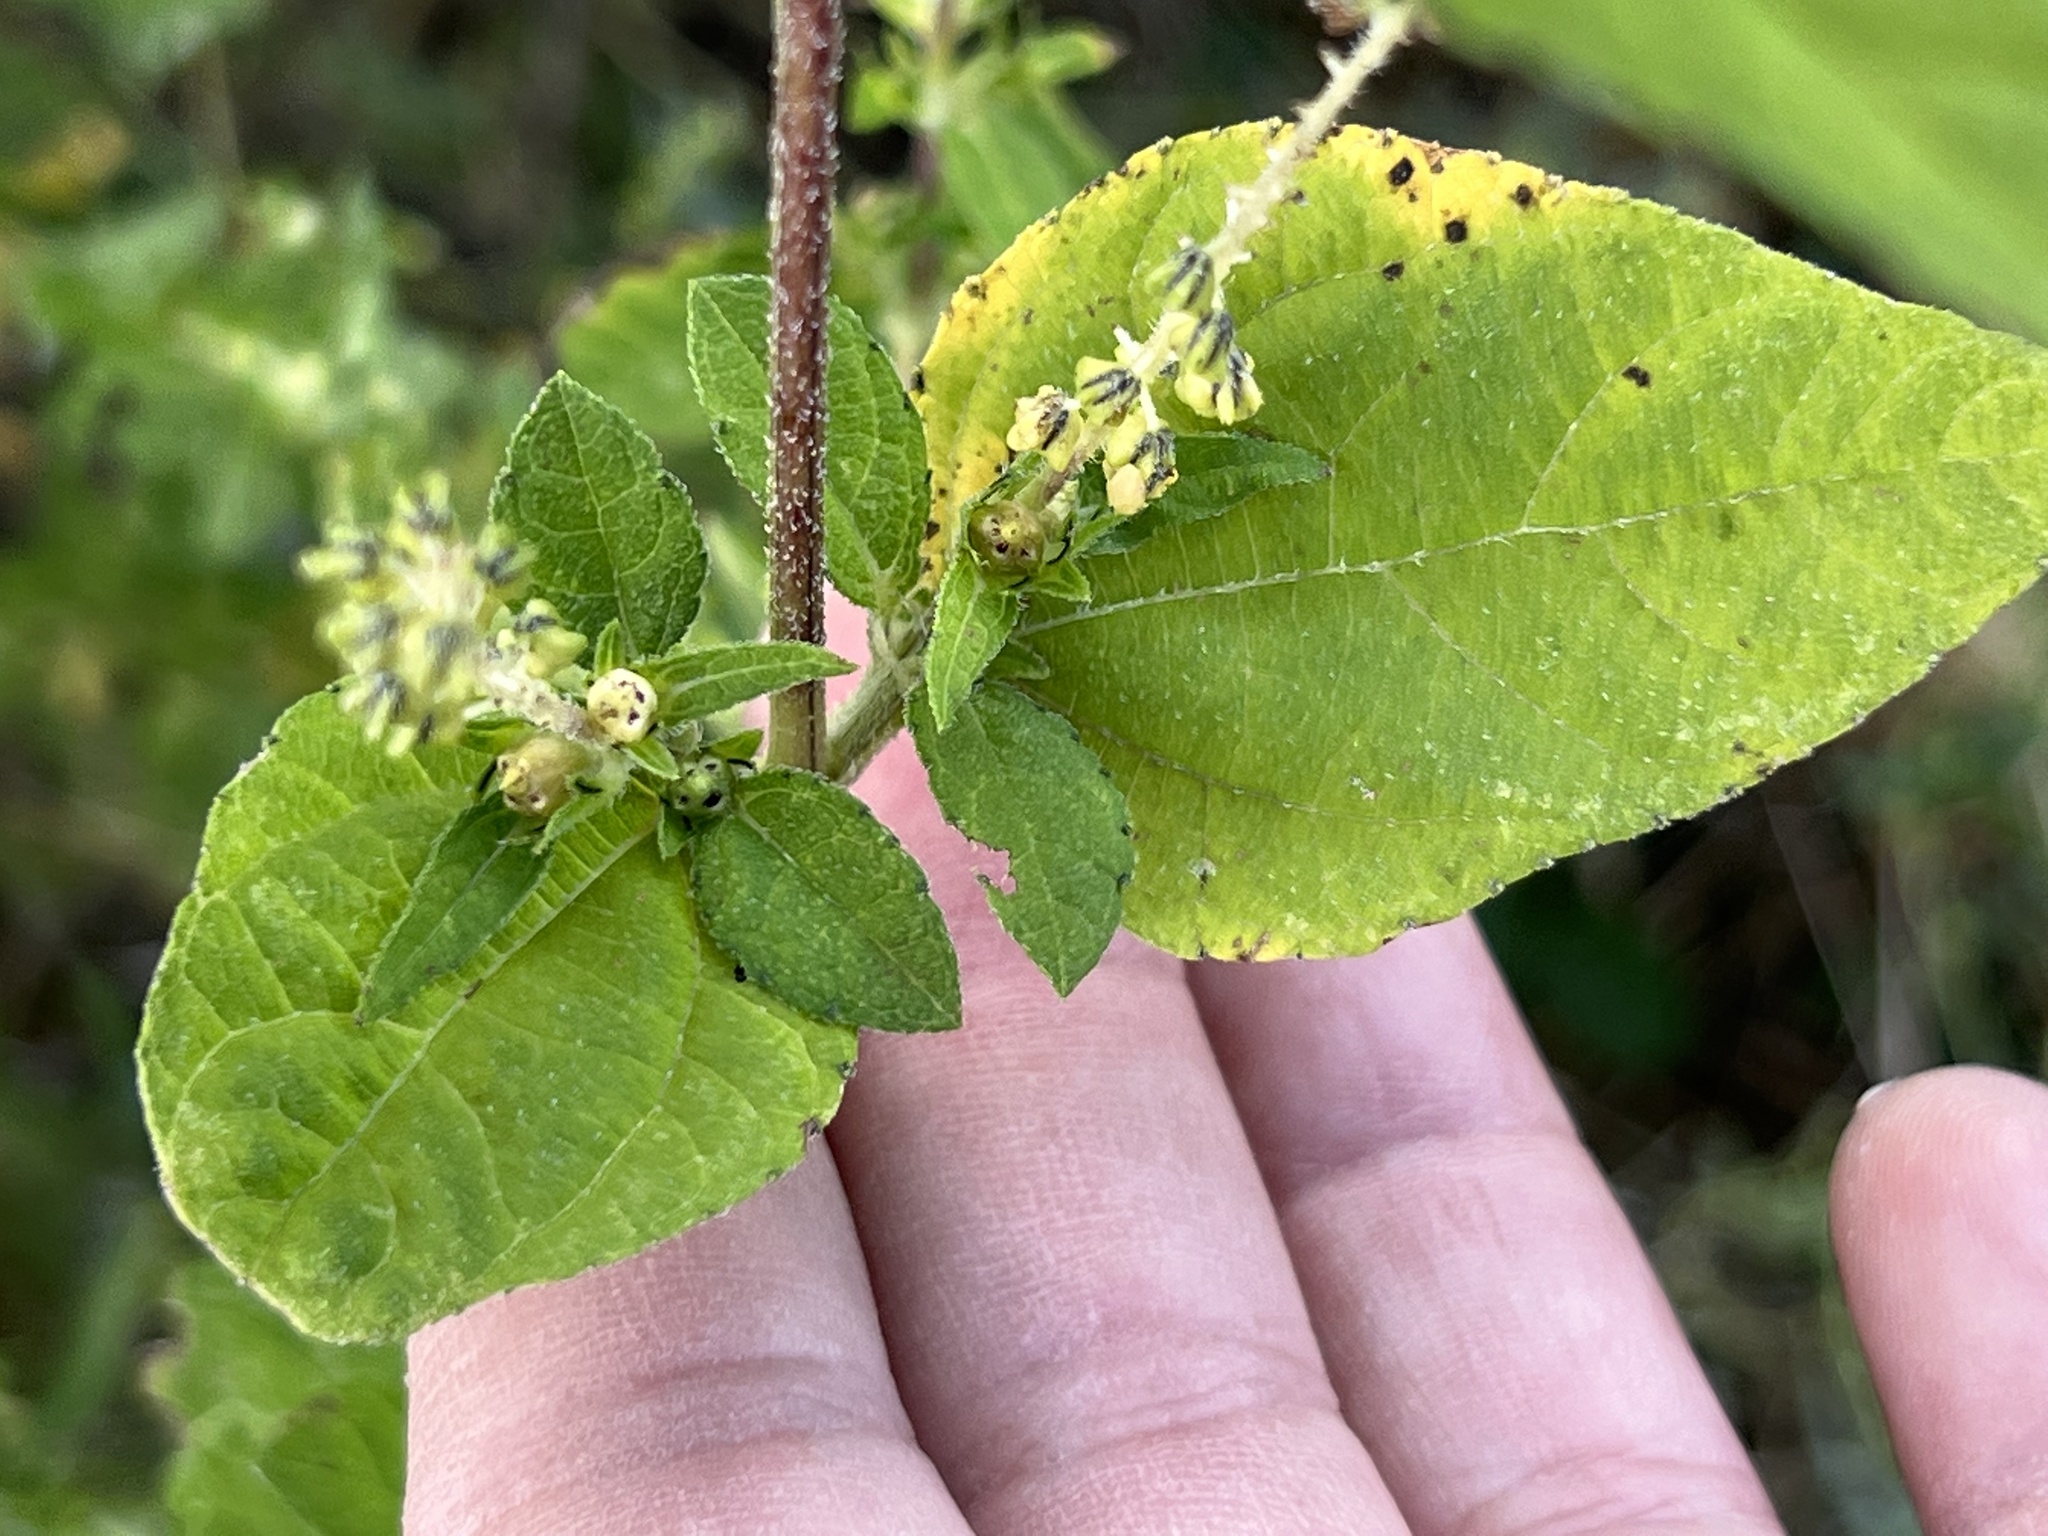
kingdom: Plantae
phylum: Tracheophyta
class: Magnoliopsida
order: Asterales
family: Asteraceae
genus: Ambrosia
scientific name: Ambrosia trifida
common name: Giant ragweed
